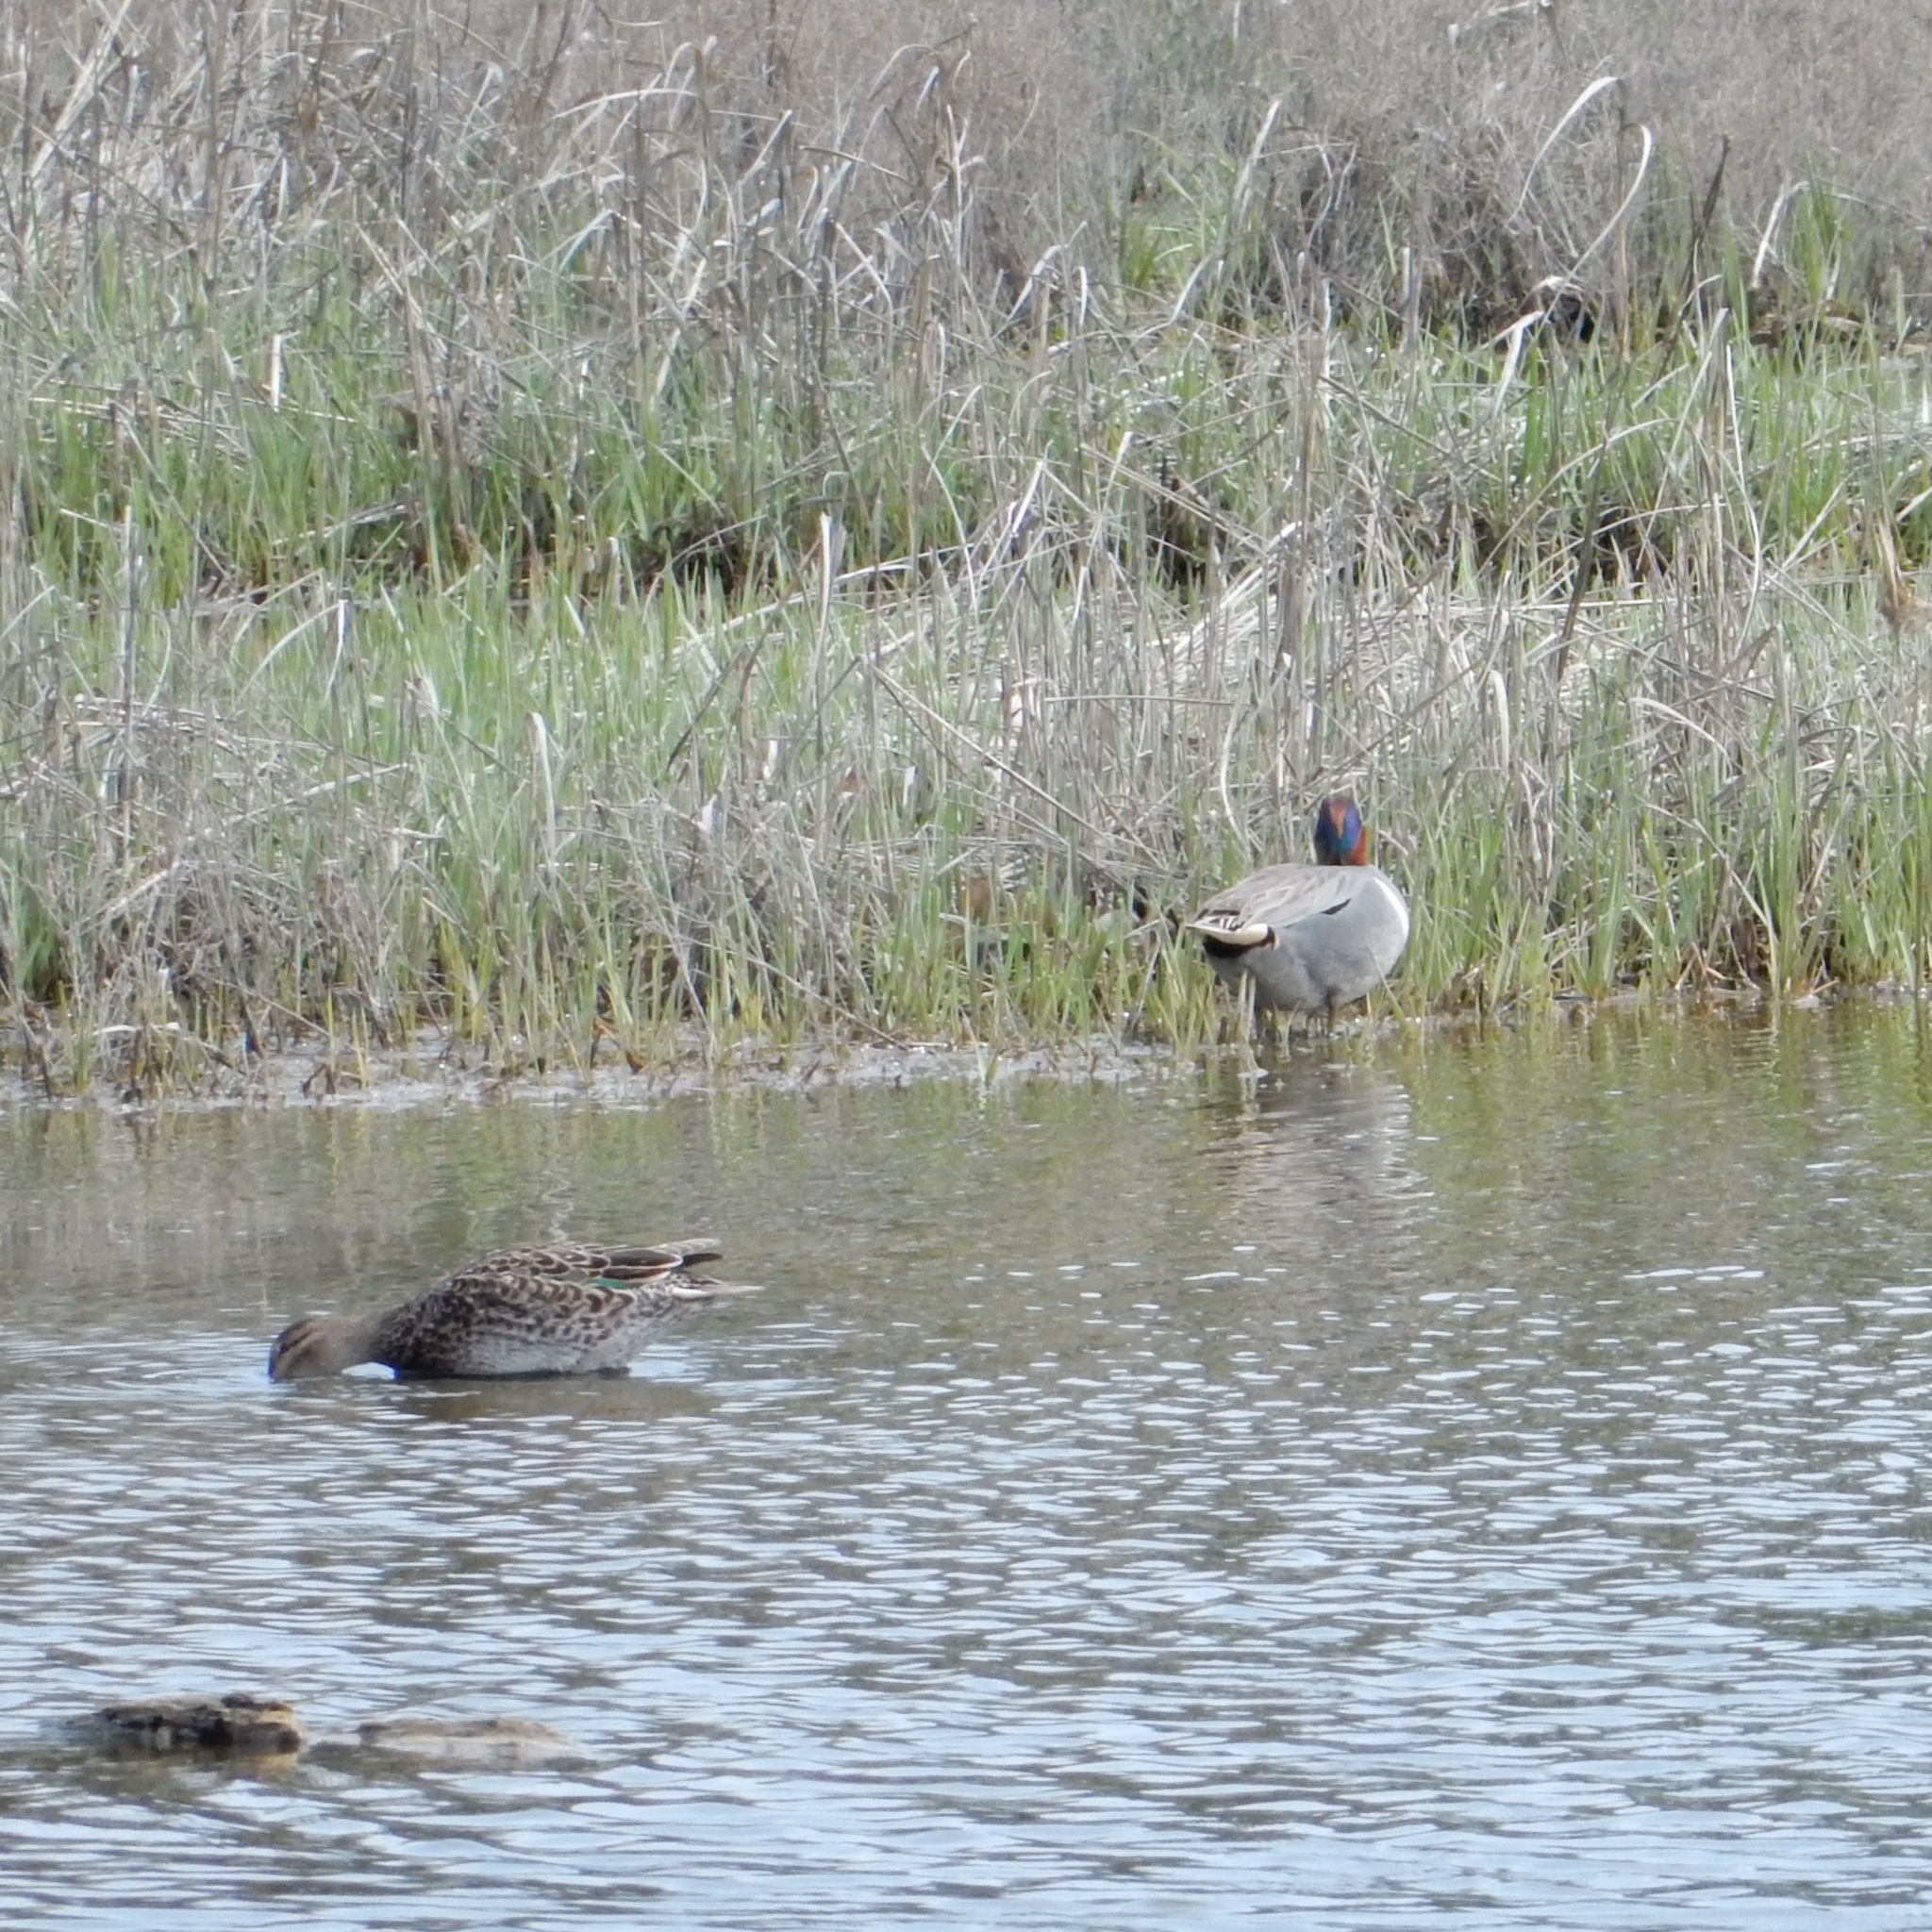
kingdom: Animalia
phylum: Chordata
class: Aves
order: Anseriformes
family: Anatidae
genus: Anas
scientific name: Anas crecca
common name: Eurasian teal
